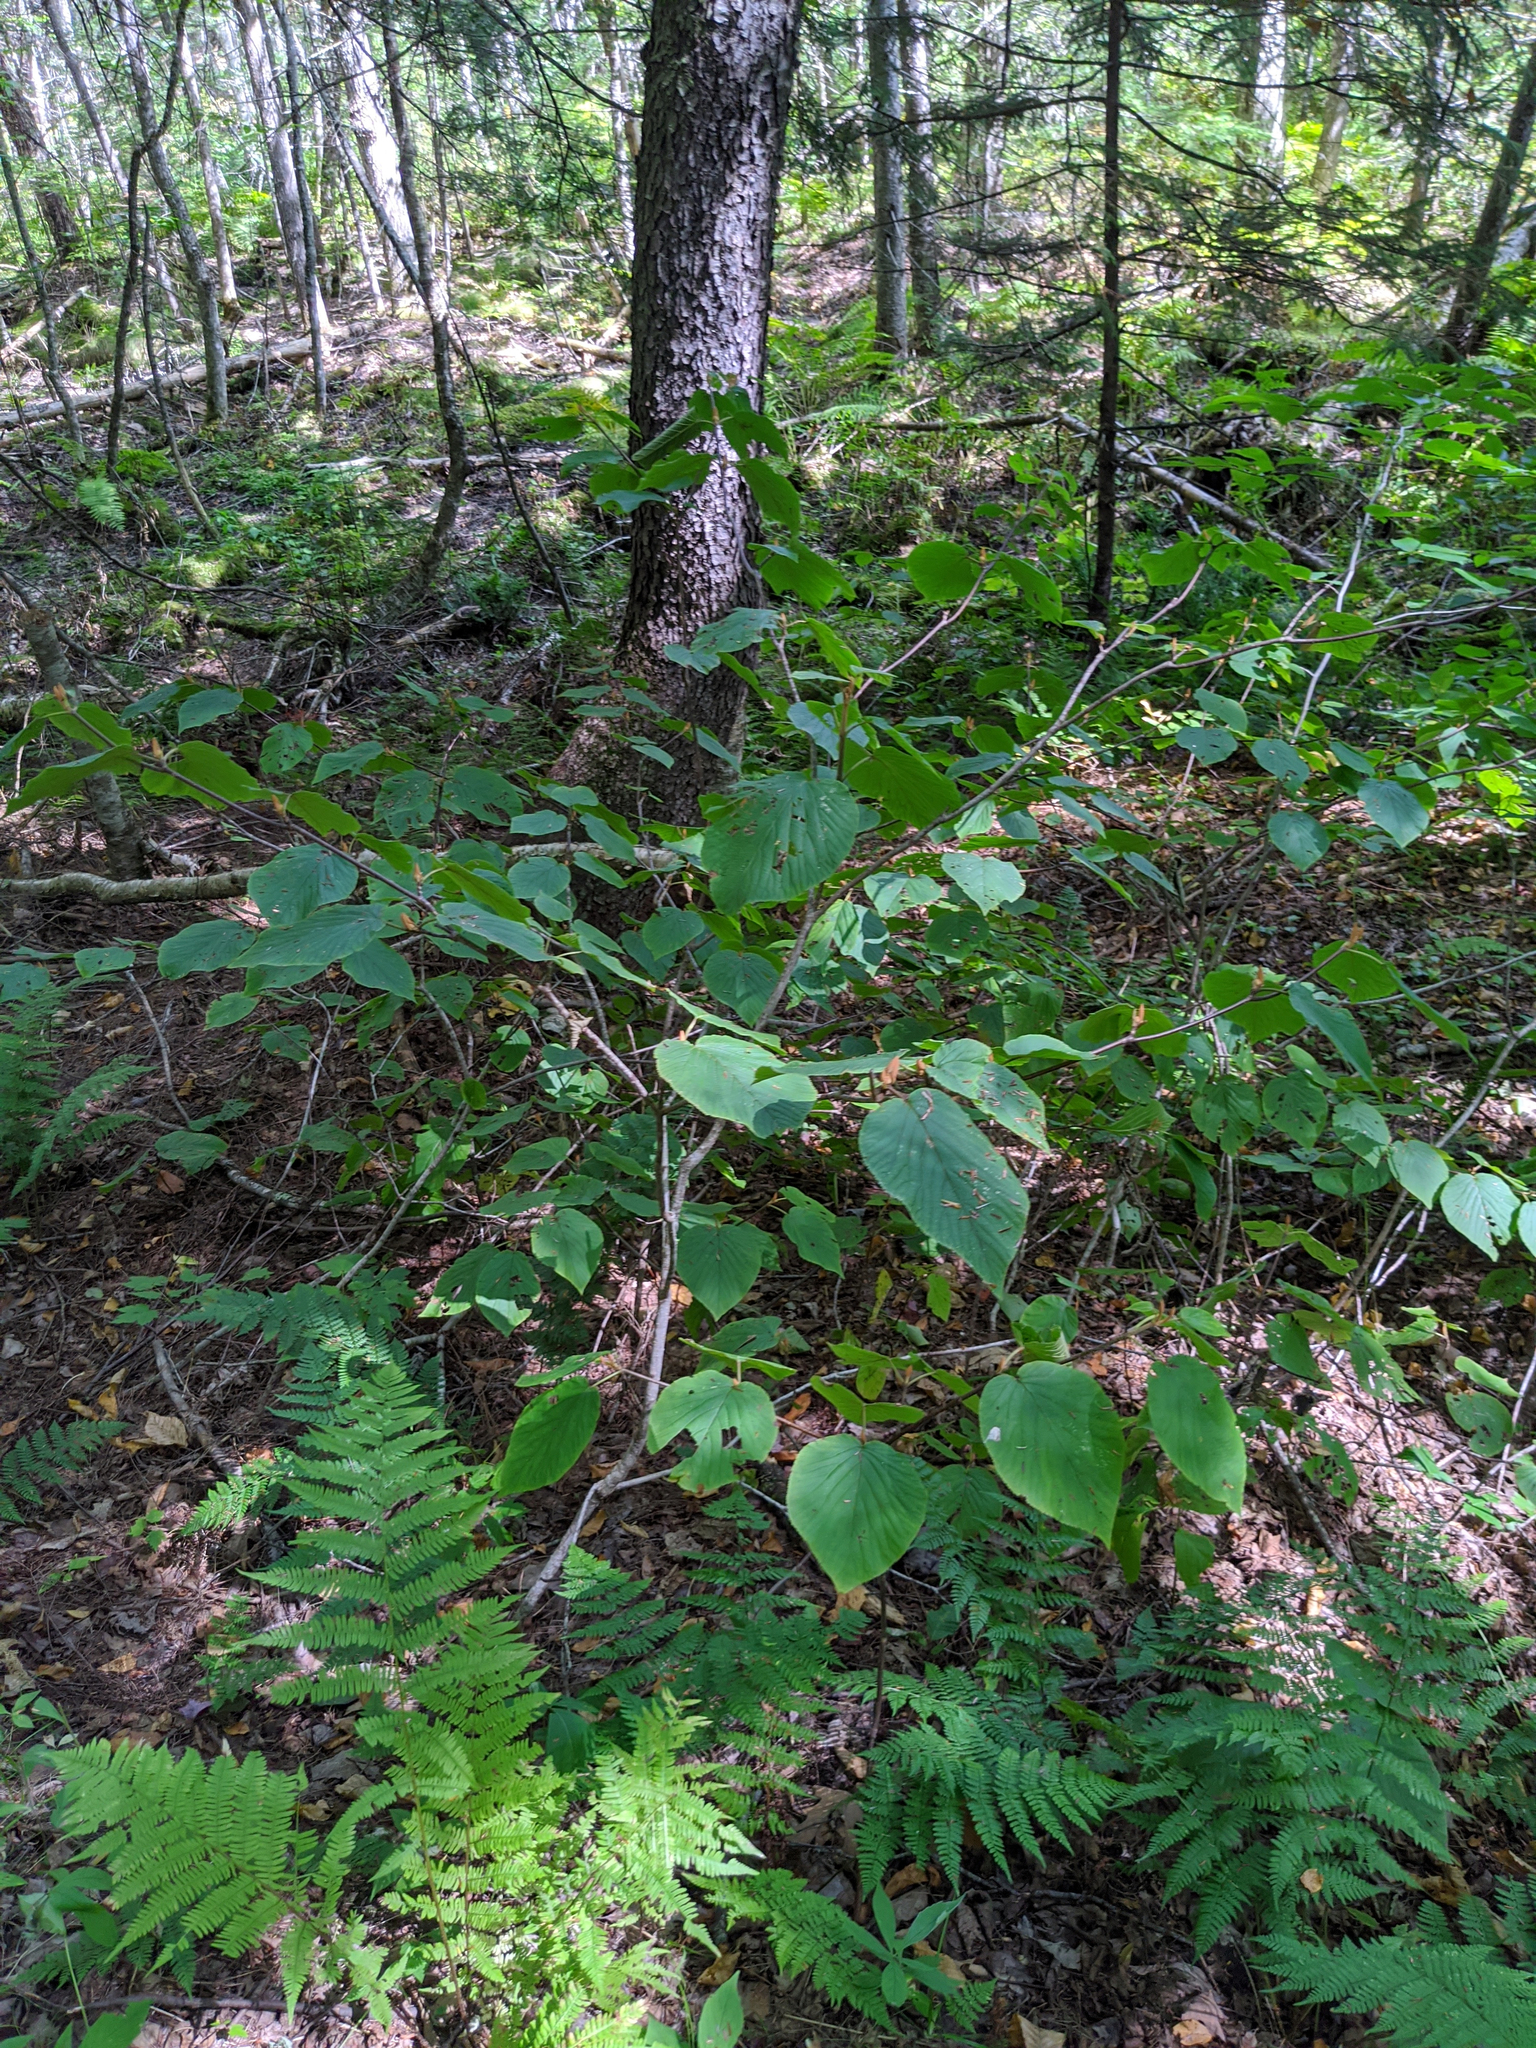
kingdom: Plantae
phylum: Tracheophyta
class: Magnoliopsida
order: Dipsacales
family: Viburnaceae
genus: Viburnum
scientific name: Viburnum lantanoides
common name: Hobblebush
